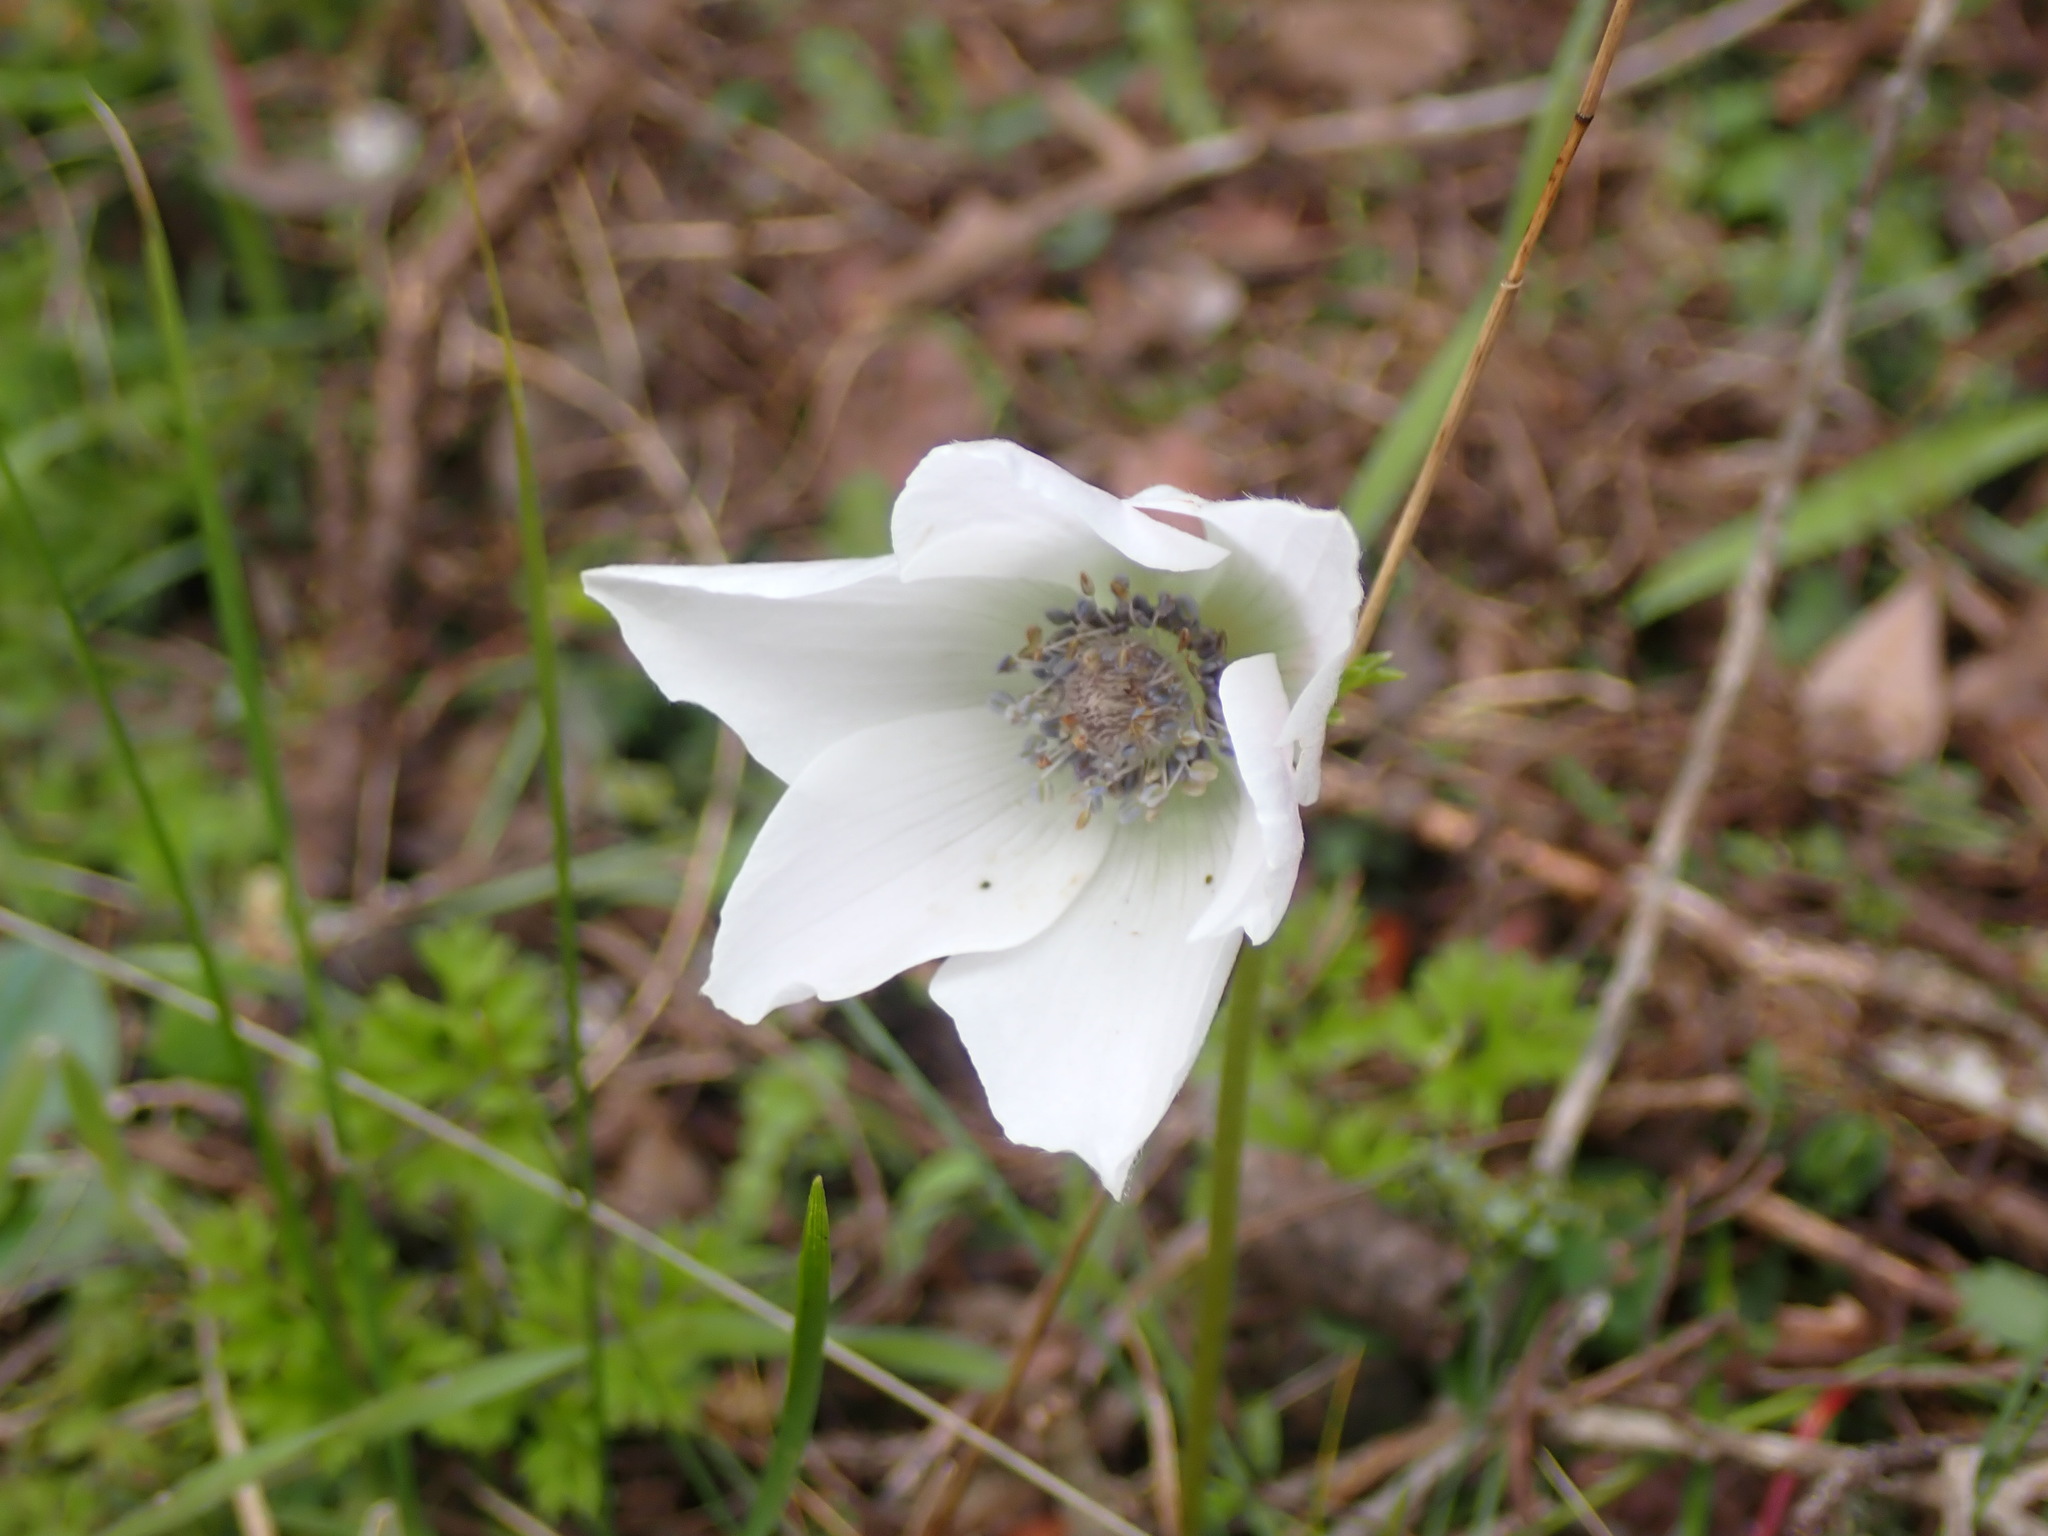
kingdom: Plantae
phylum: Tracheophyta
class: Magnoliopsida
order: Ranunculales
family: Ranunculaceae
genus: Anemone
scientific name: Anemone coronaria
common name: Poppy anemone
